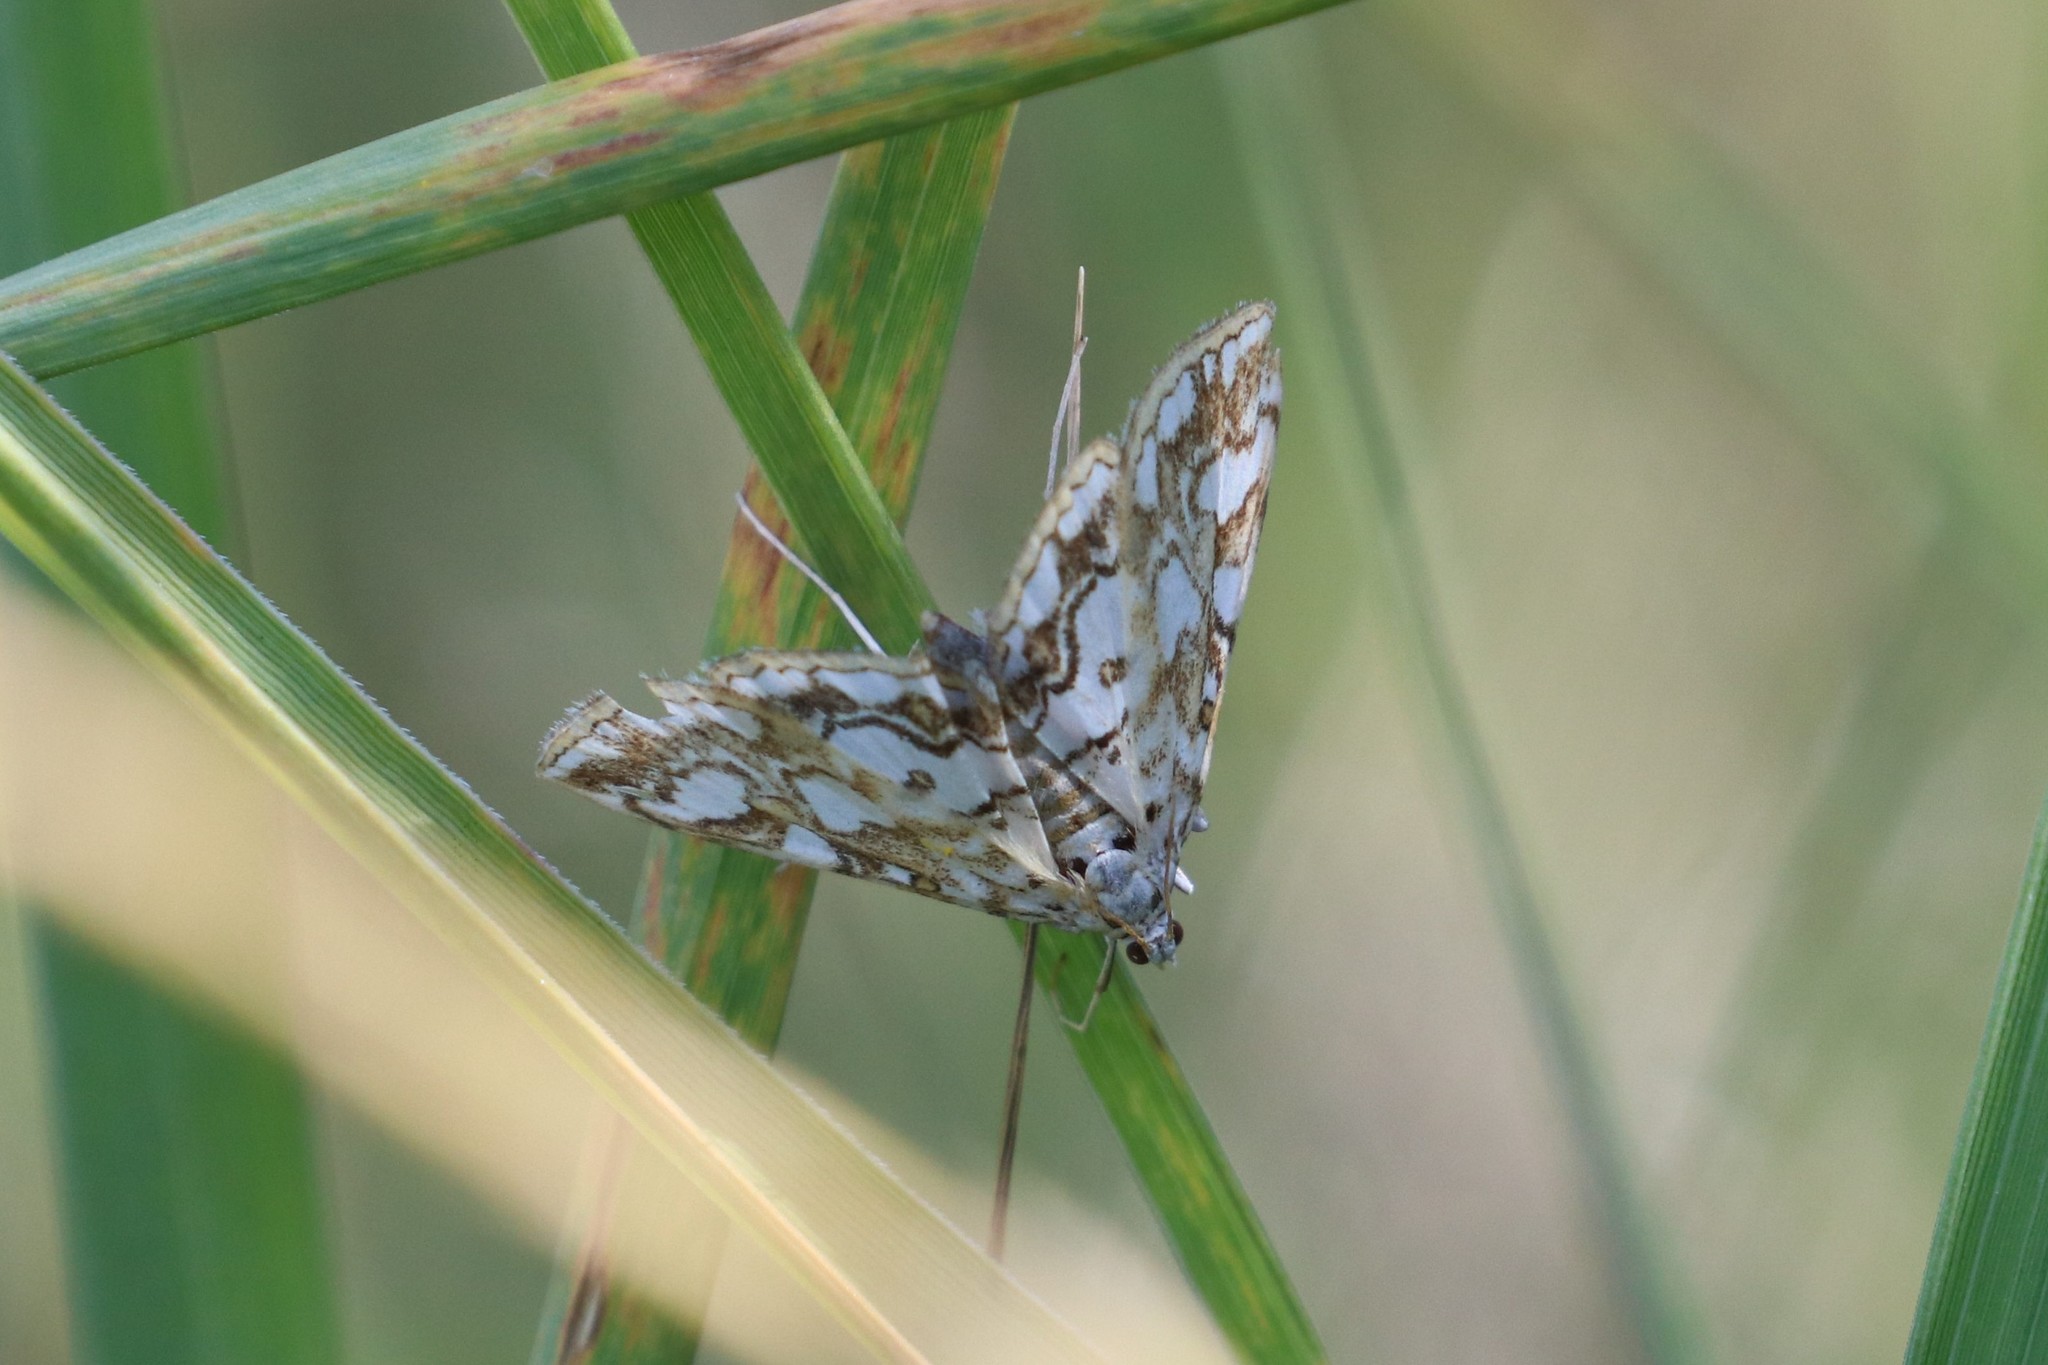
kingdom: Animalia
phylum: Arthropoda
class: Insecta
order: Lepidoptera
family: Crambidae
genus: Elophila
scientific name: Elophila nymphaeata
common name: Brown china-mark
